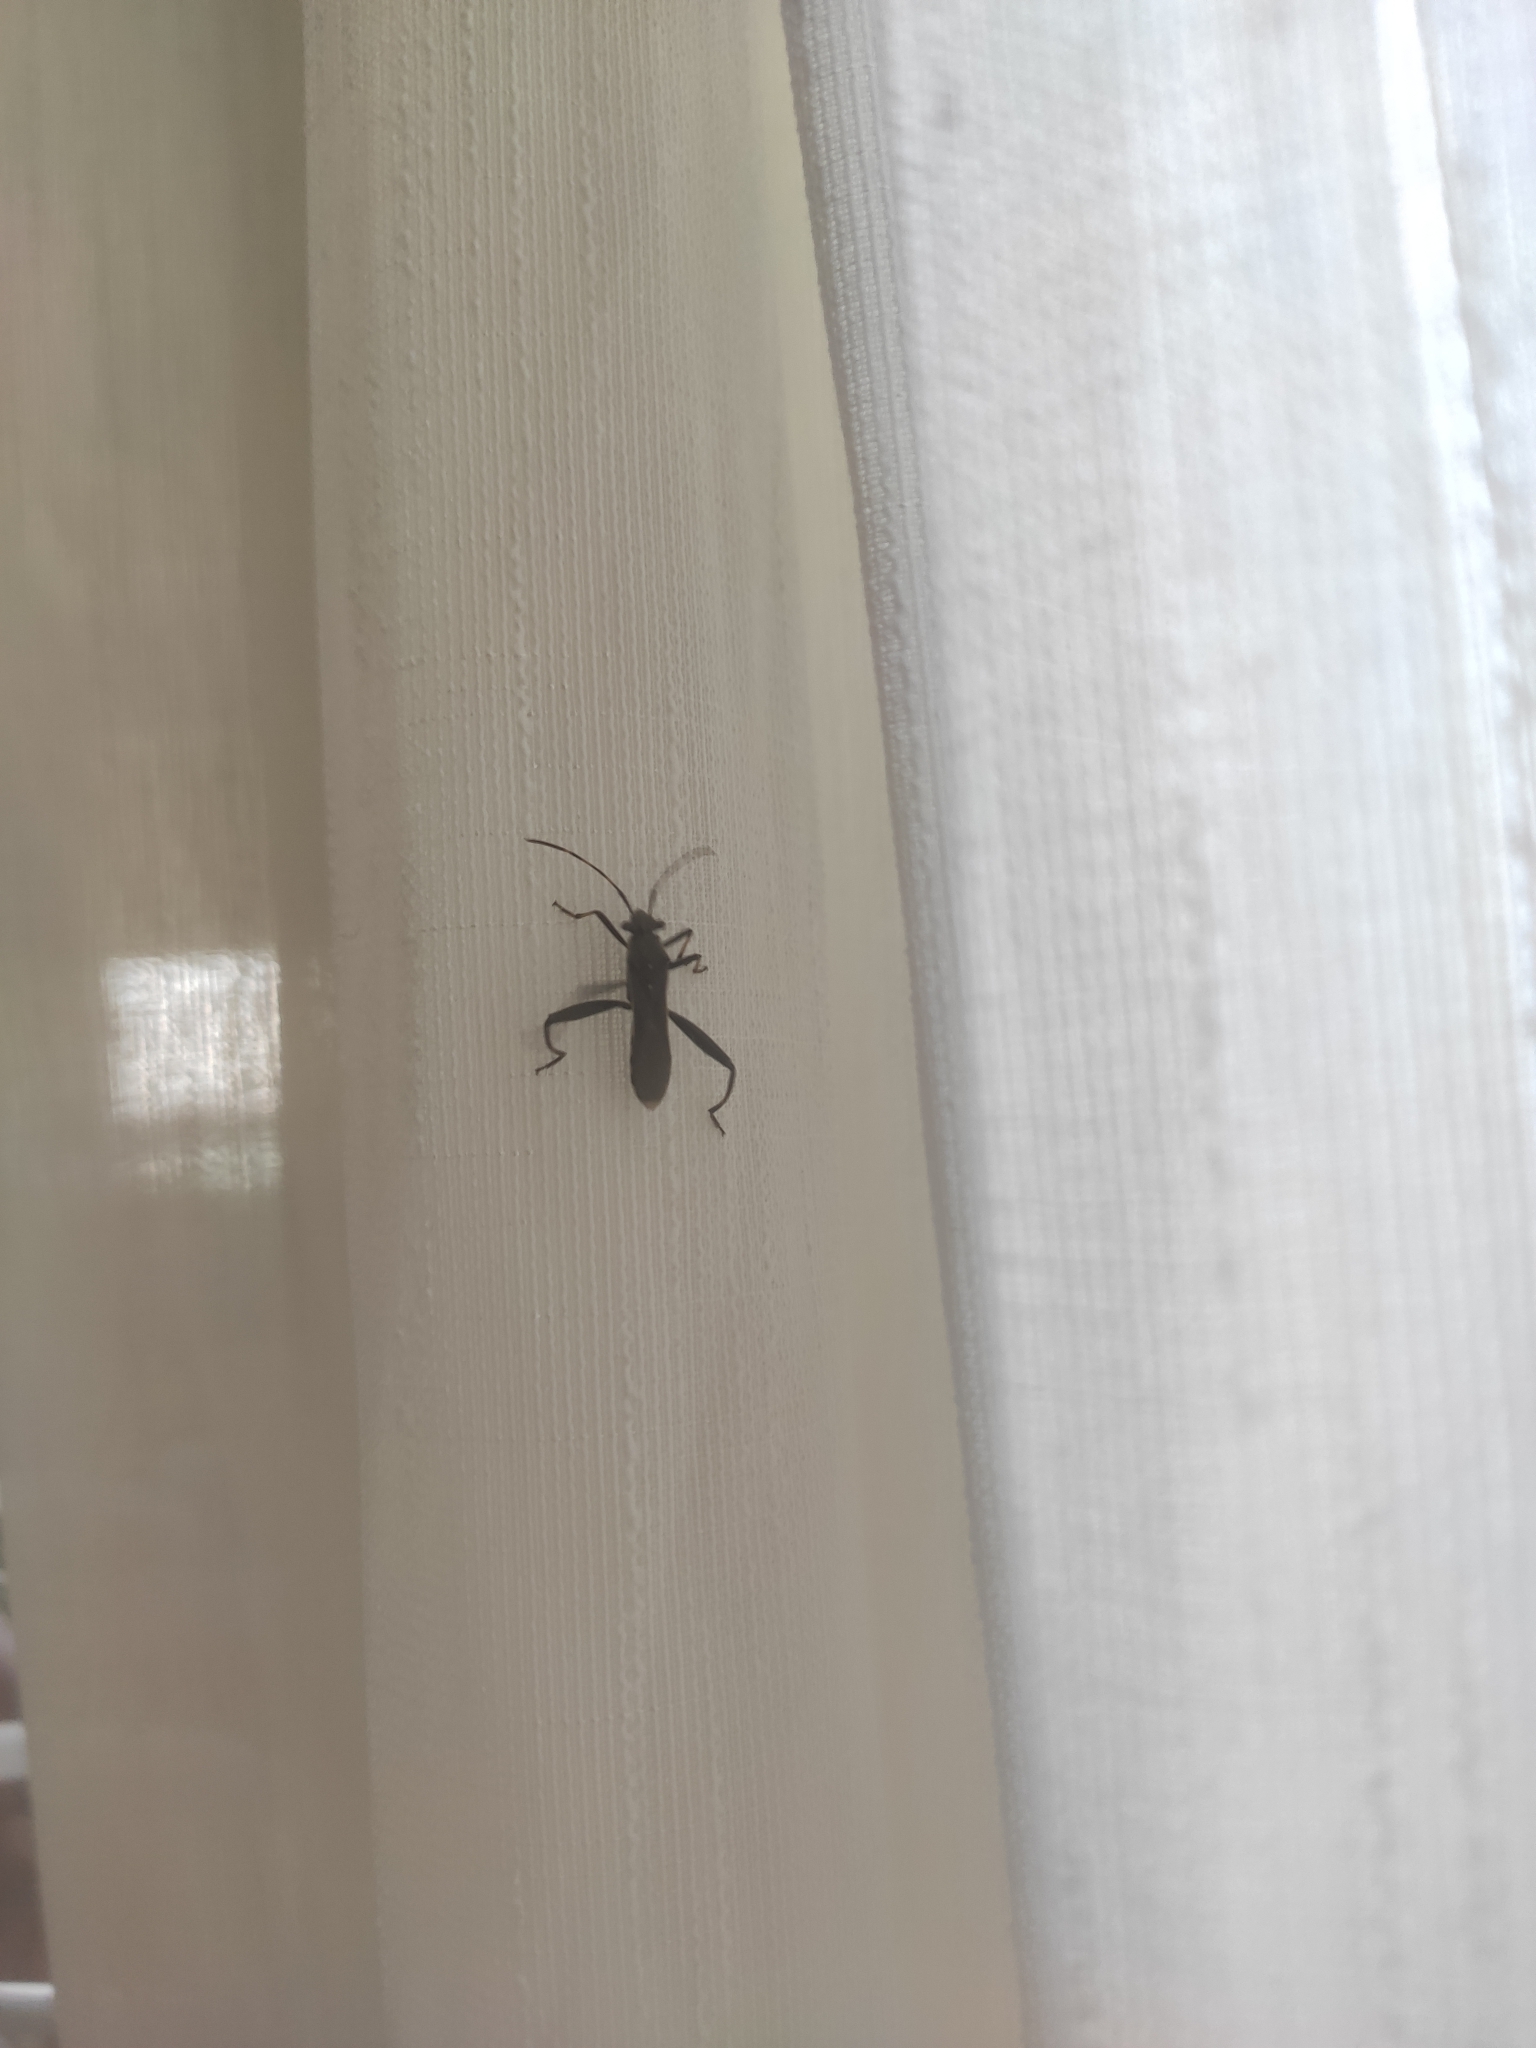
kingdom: Animalia
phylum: Arthropoda
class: Insecta
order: Hemiptera
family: Alydidae
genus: Camptopus
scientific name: Camptopus lateralis
